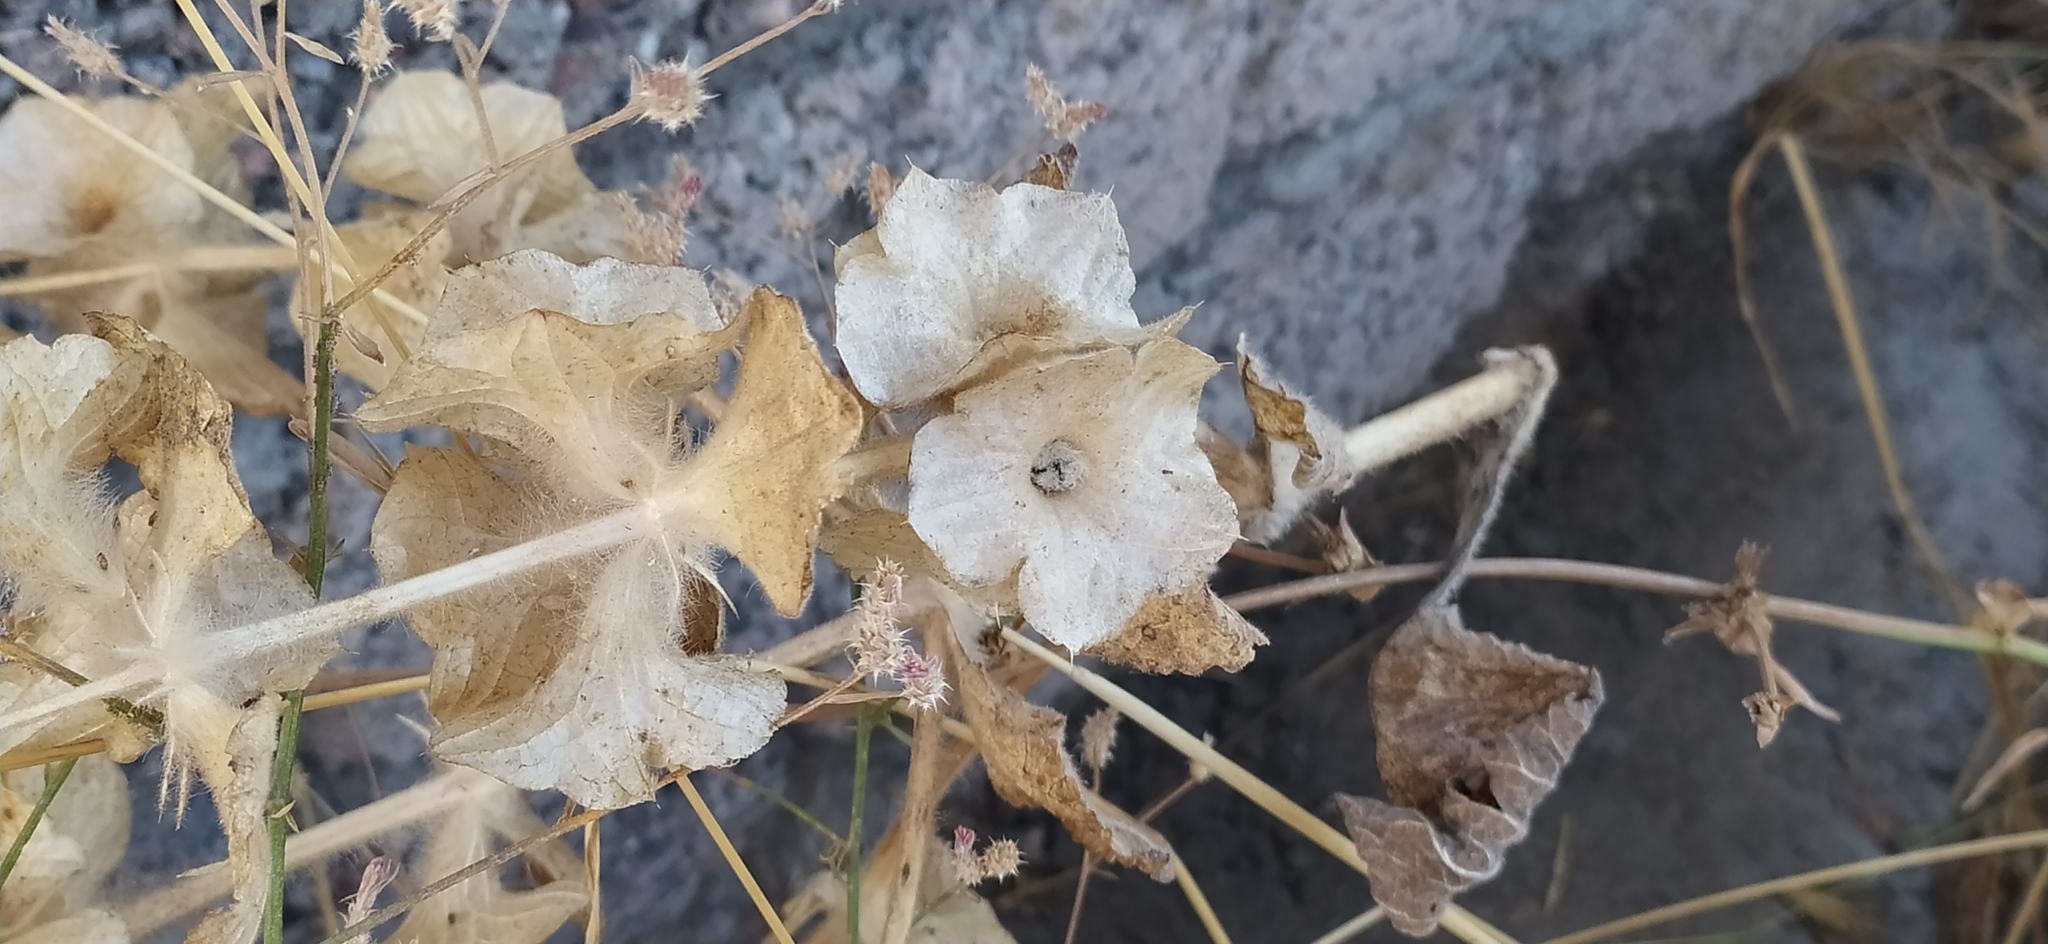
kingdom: Plantae
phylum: Tracheophyta
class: Magnoliopsida
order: Lamiales
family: Lamiaceae
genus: Phlomoides
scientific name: Phlomoides isochila
